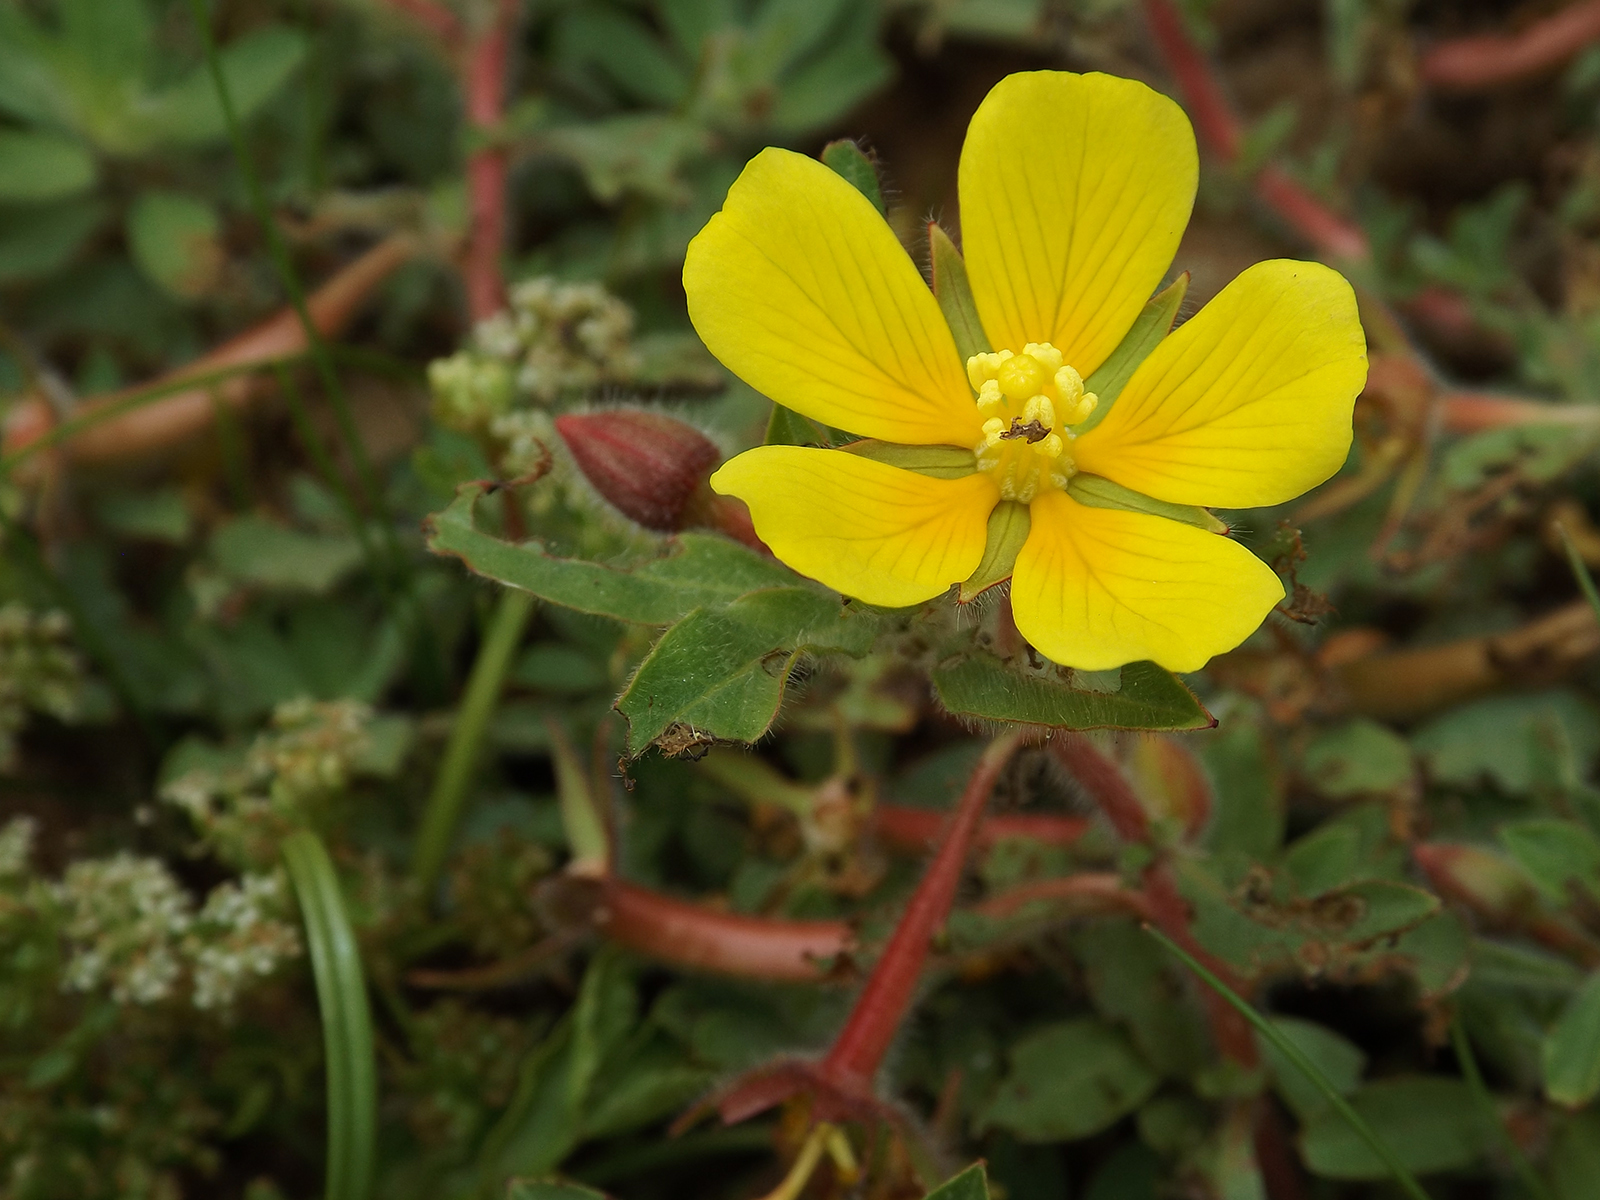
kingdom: Plantae
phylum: Tracheophyta
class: Magnoliopsida
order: Myrtales
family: Onagraceae
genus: Ludwigia
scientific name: Ludwigia peploides
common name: Floating primrose-willow
